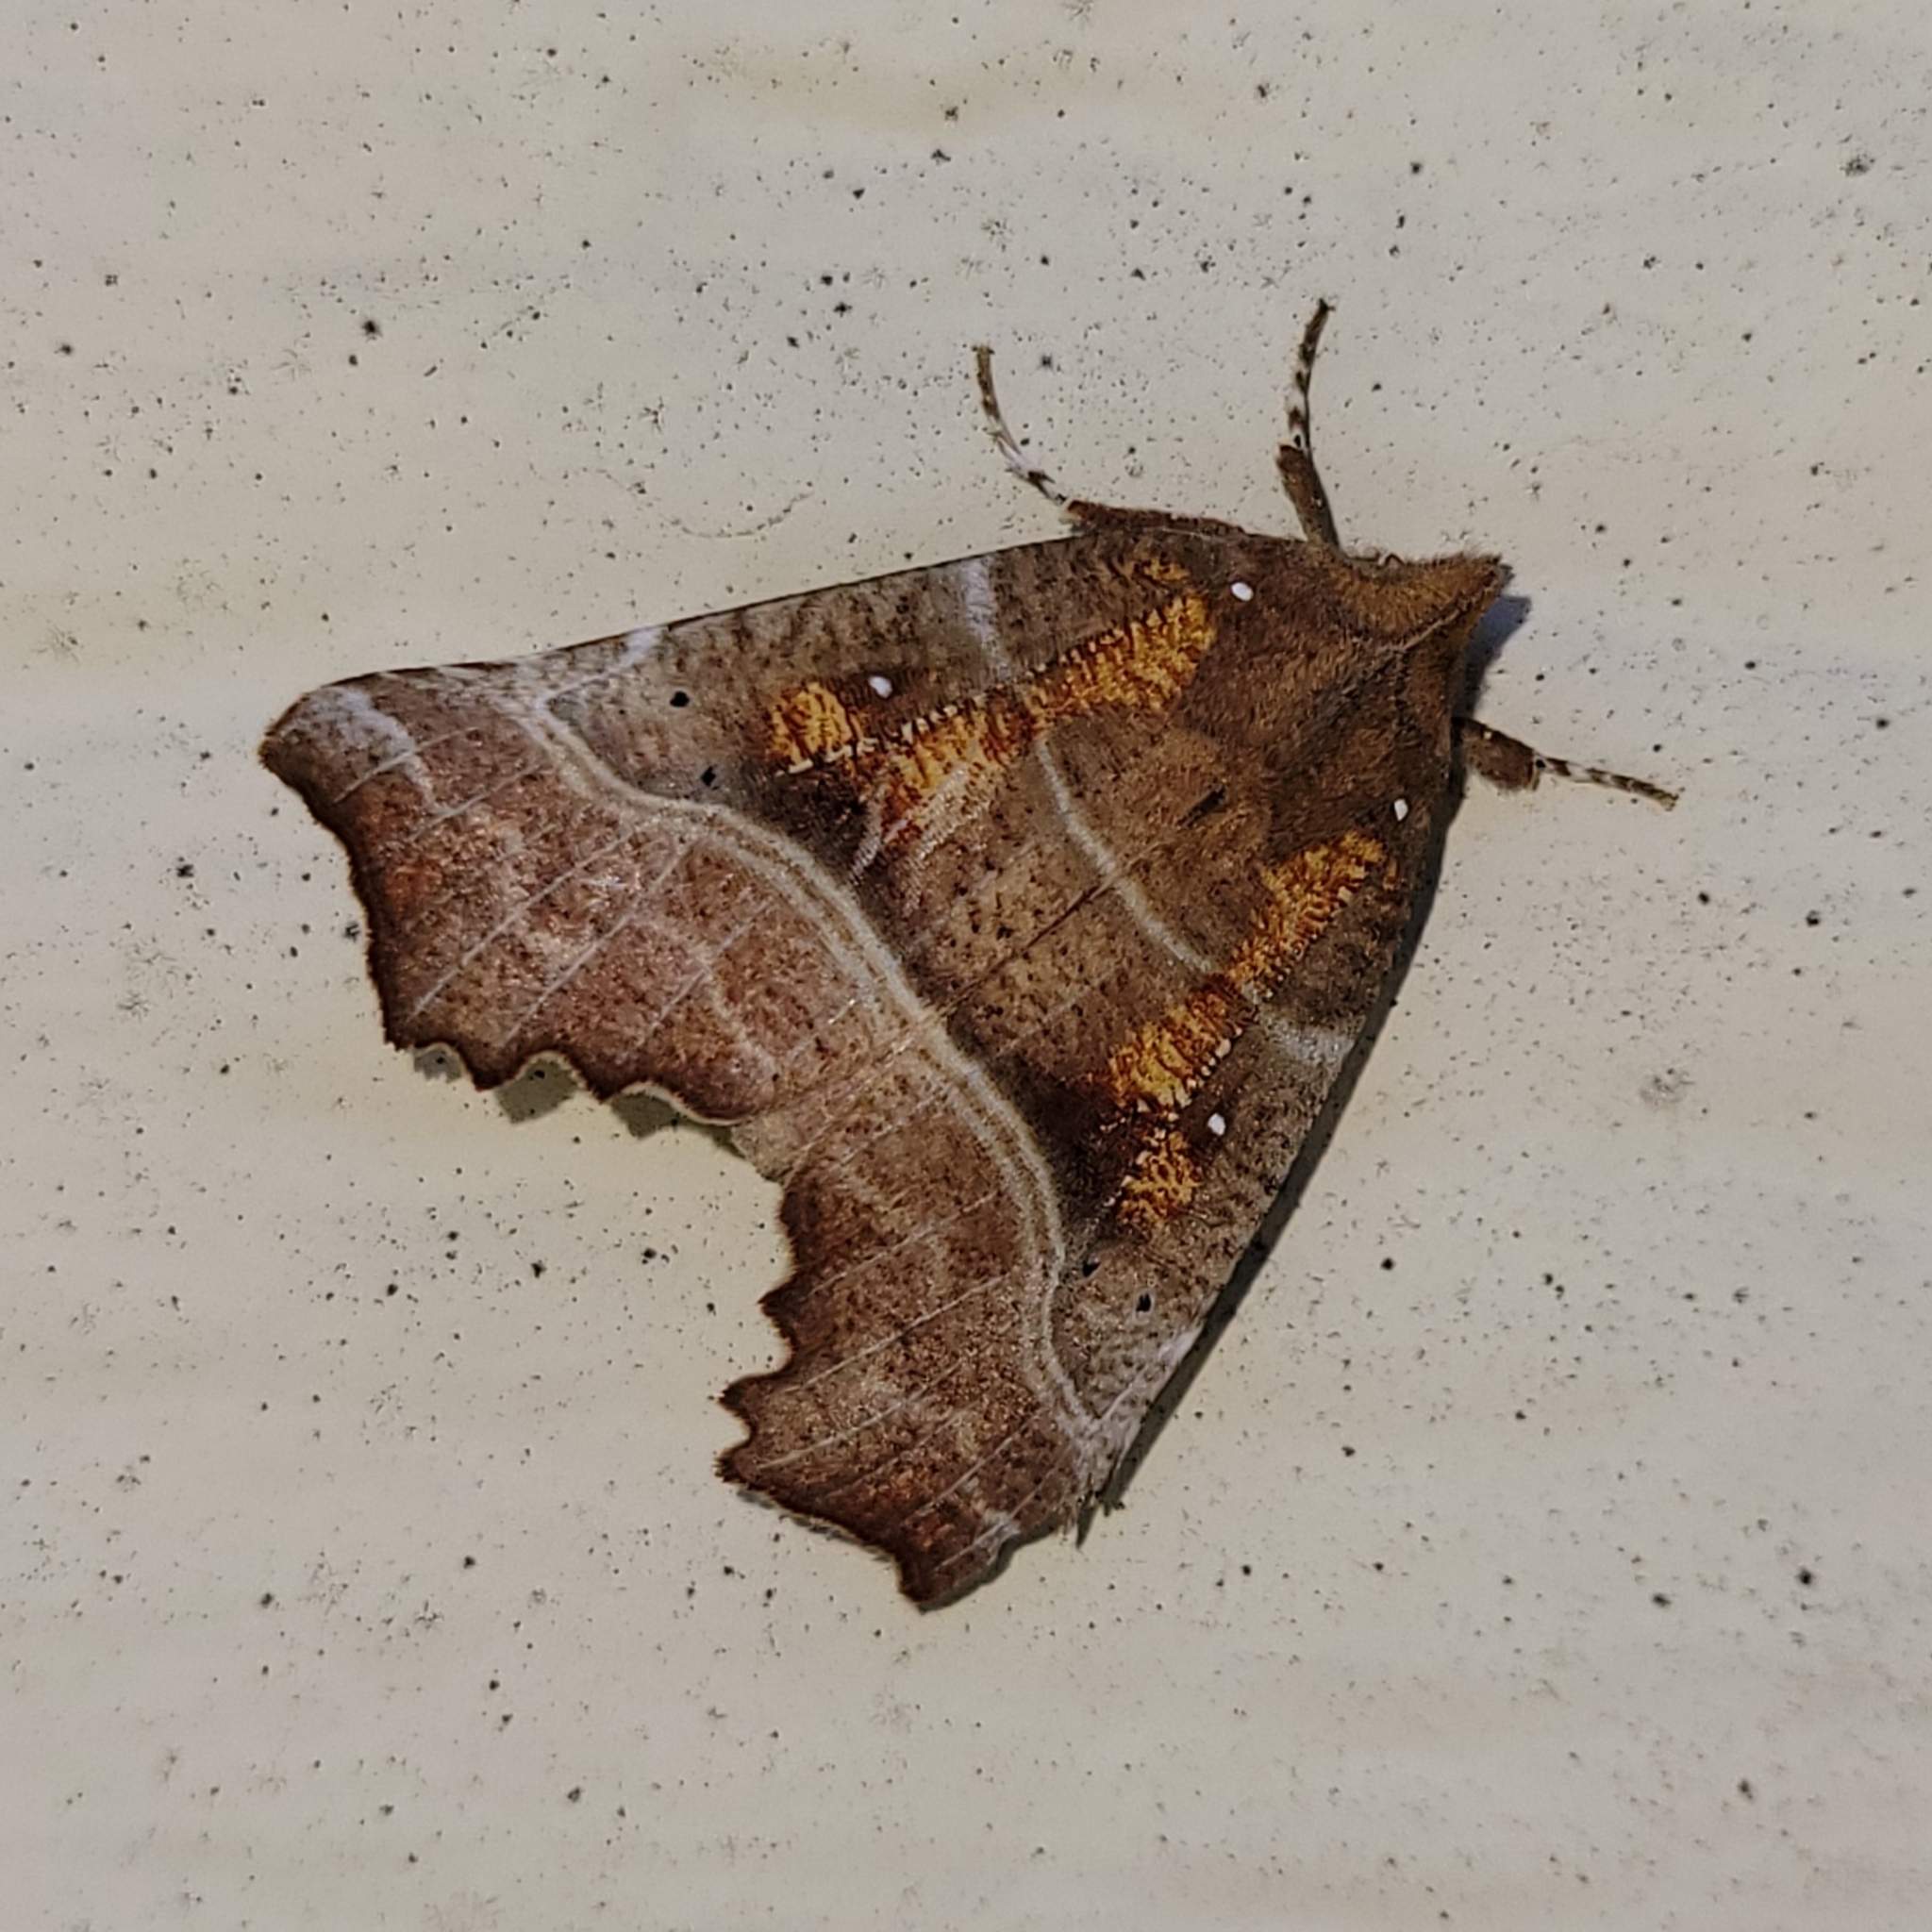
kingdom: Animalia
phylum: Arthropoda
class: Insecta
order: Lepidoptera
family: Erebidae
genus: Scoliopteryx
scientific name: Scoliopteryx libatrix
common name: Herald
